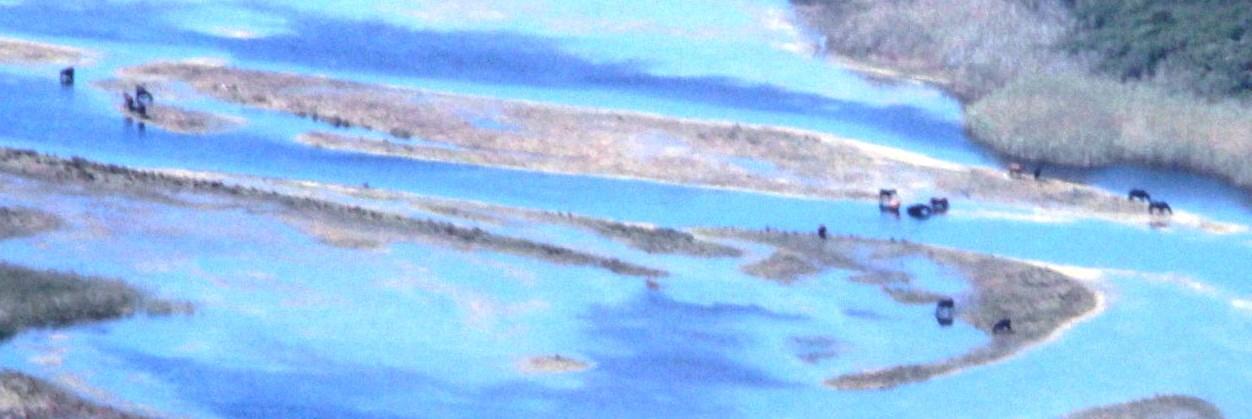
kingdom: Animalia
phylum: Chordata
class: Mammalia
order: Perissodactyla
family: Equidae
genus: Equus
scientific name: Equus caballus
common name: Horse
